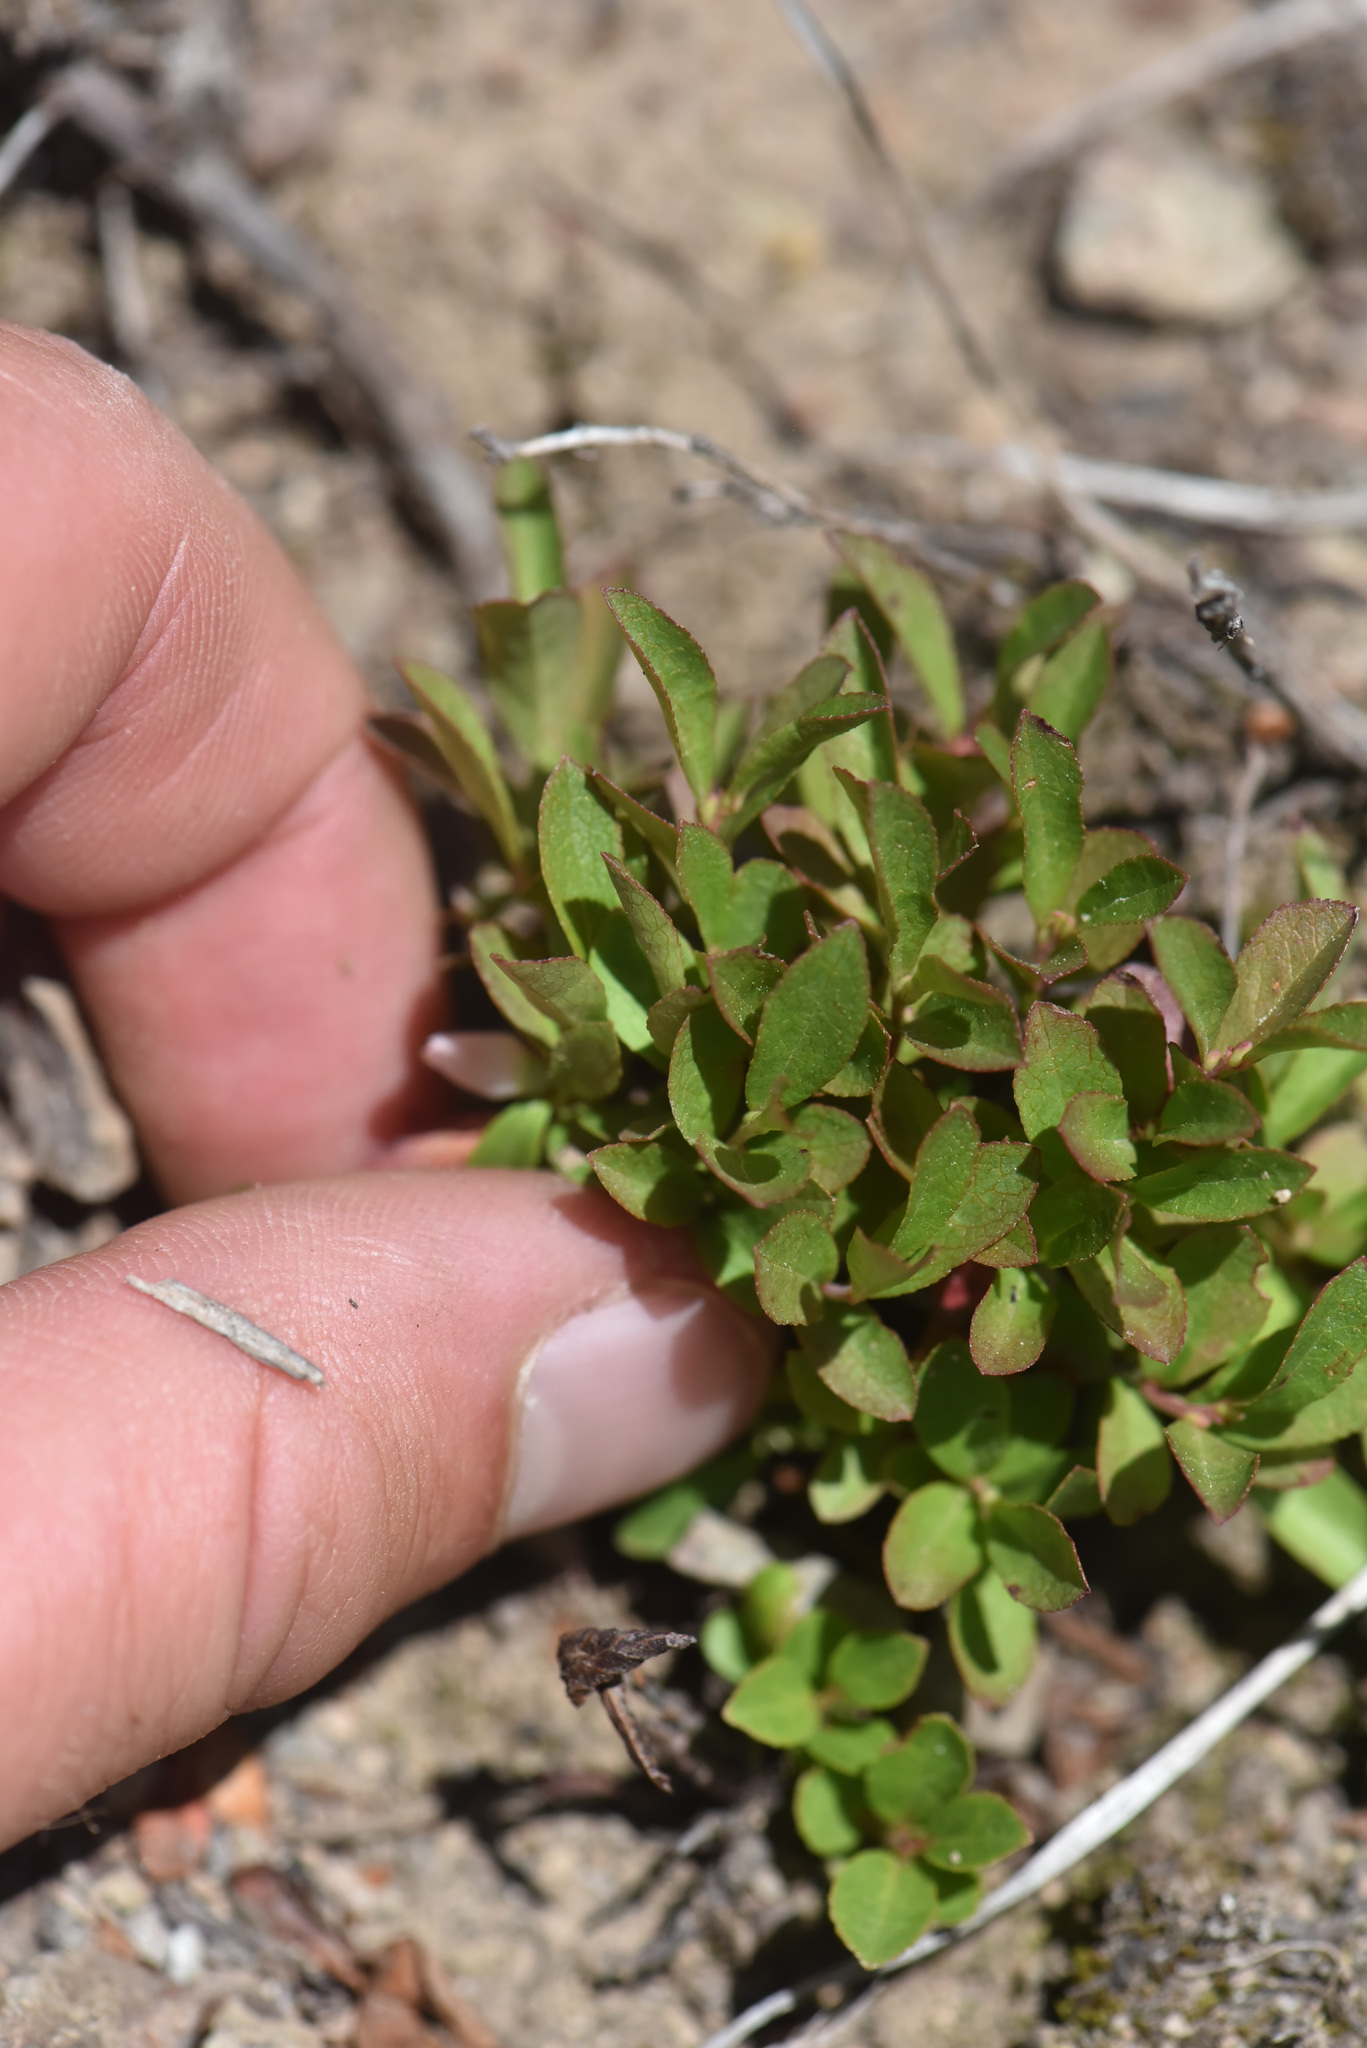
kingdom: Plantae
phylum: Tracheophyta
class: Magnoliopsida
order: Ericales
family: Ericaceae
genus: Vaccinium
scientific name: Vaccinium cespitosum
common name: Dwarf bilberry
